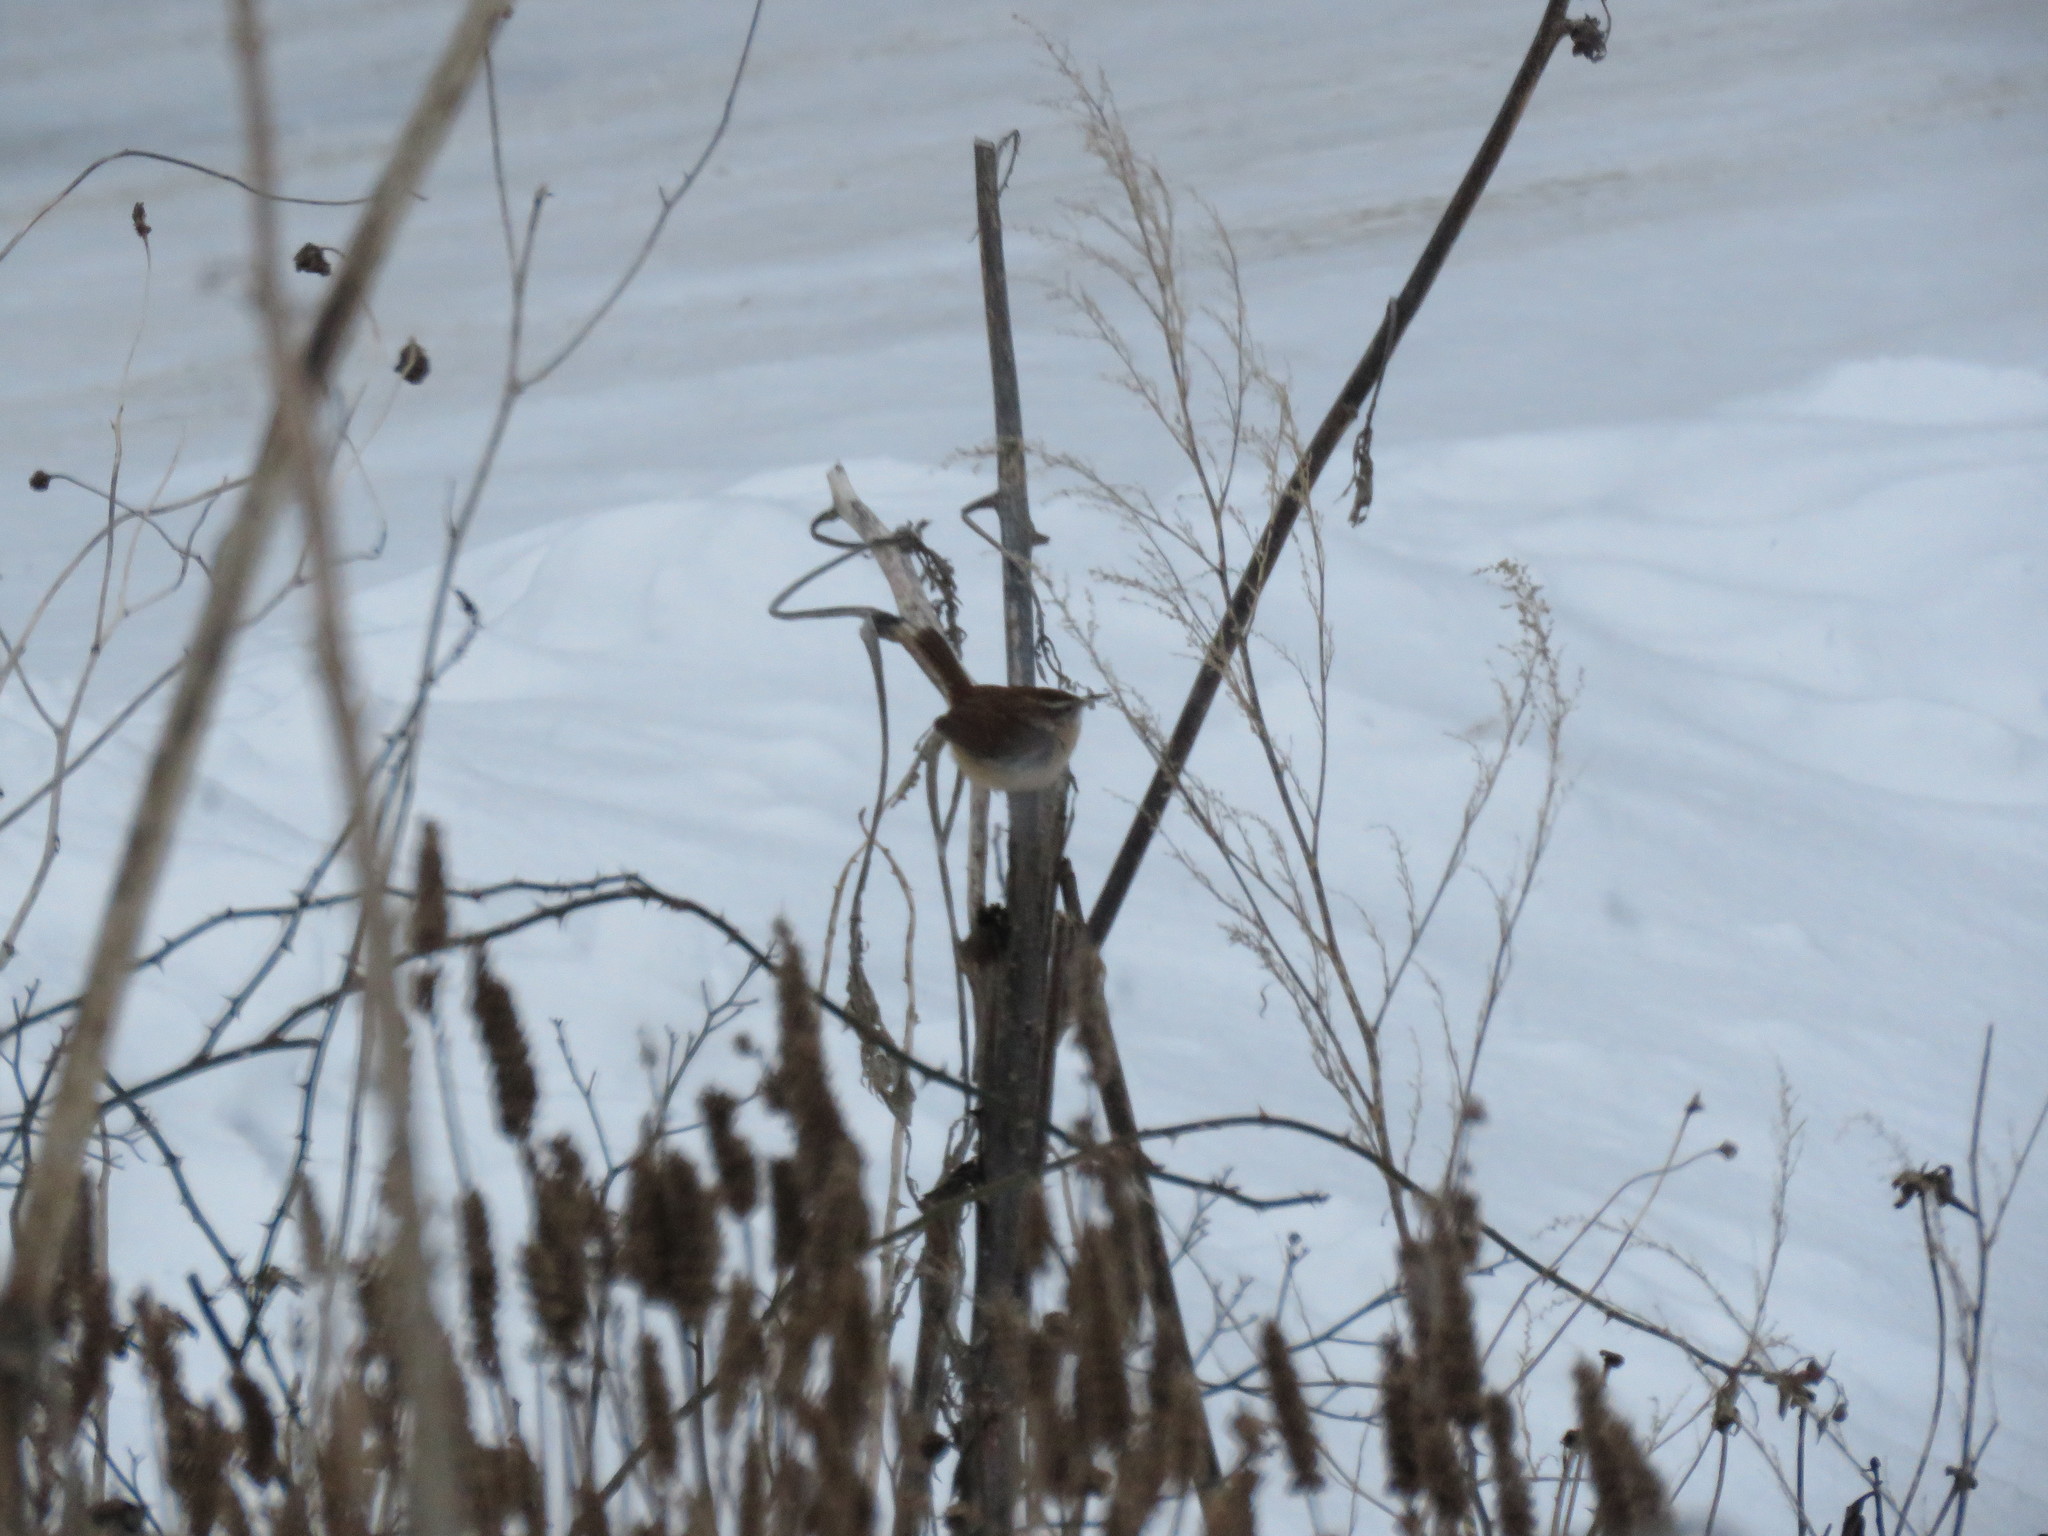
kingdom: Animalia
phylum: Chordata
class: Aves
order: Passeriformes
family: Troglodytidae
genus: Thryothorus
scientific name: Thryothorus ludovicianus
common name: Carolina wren
